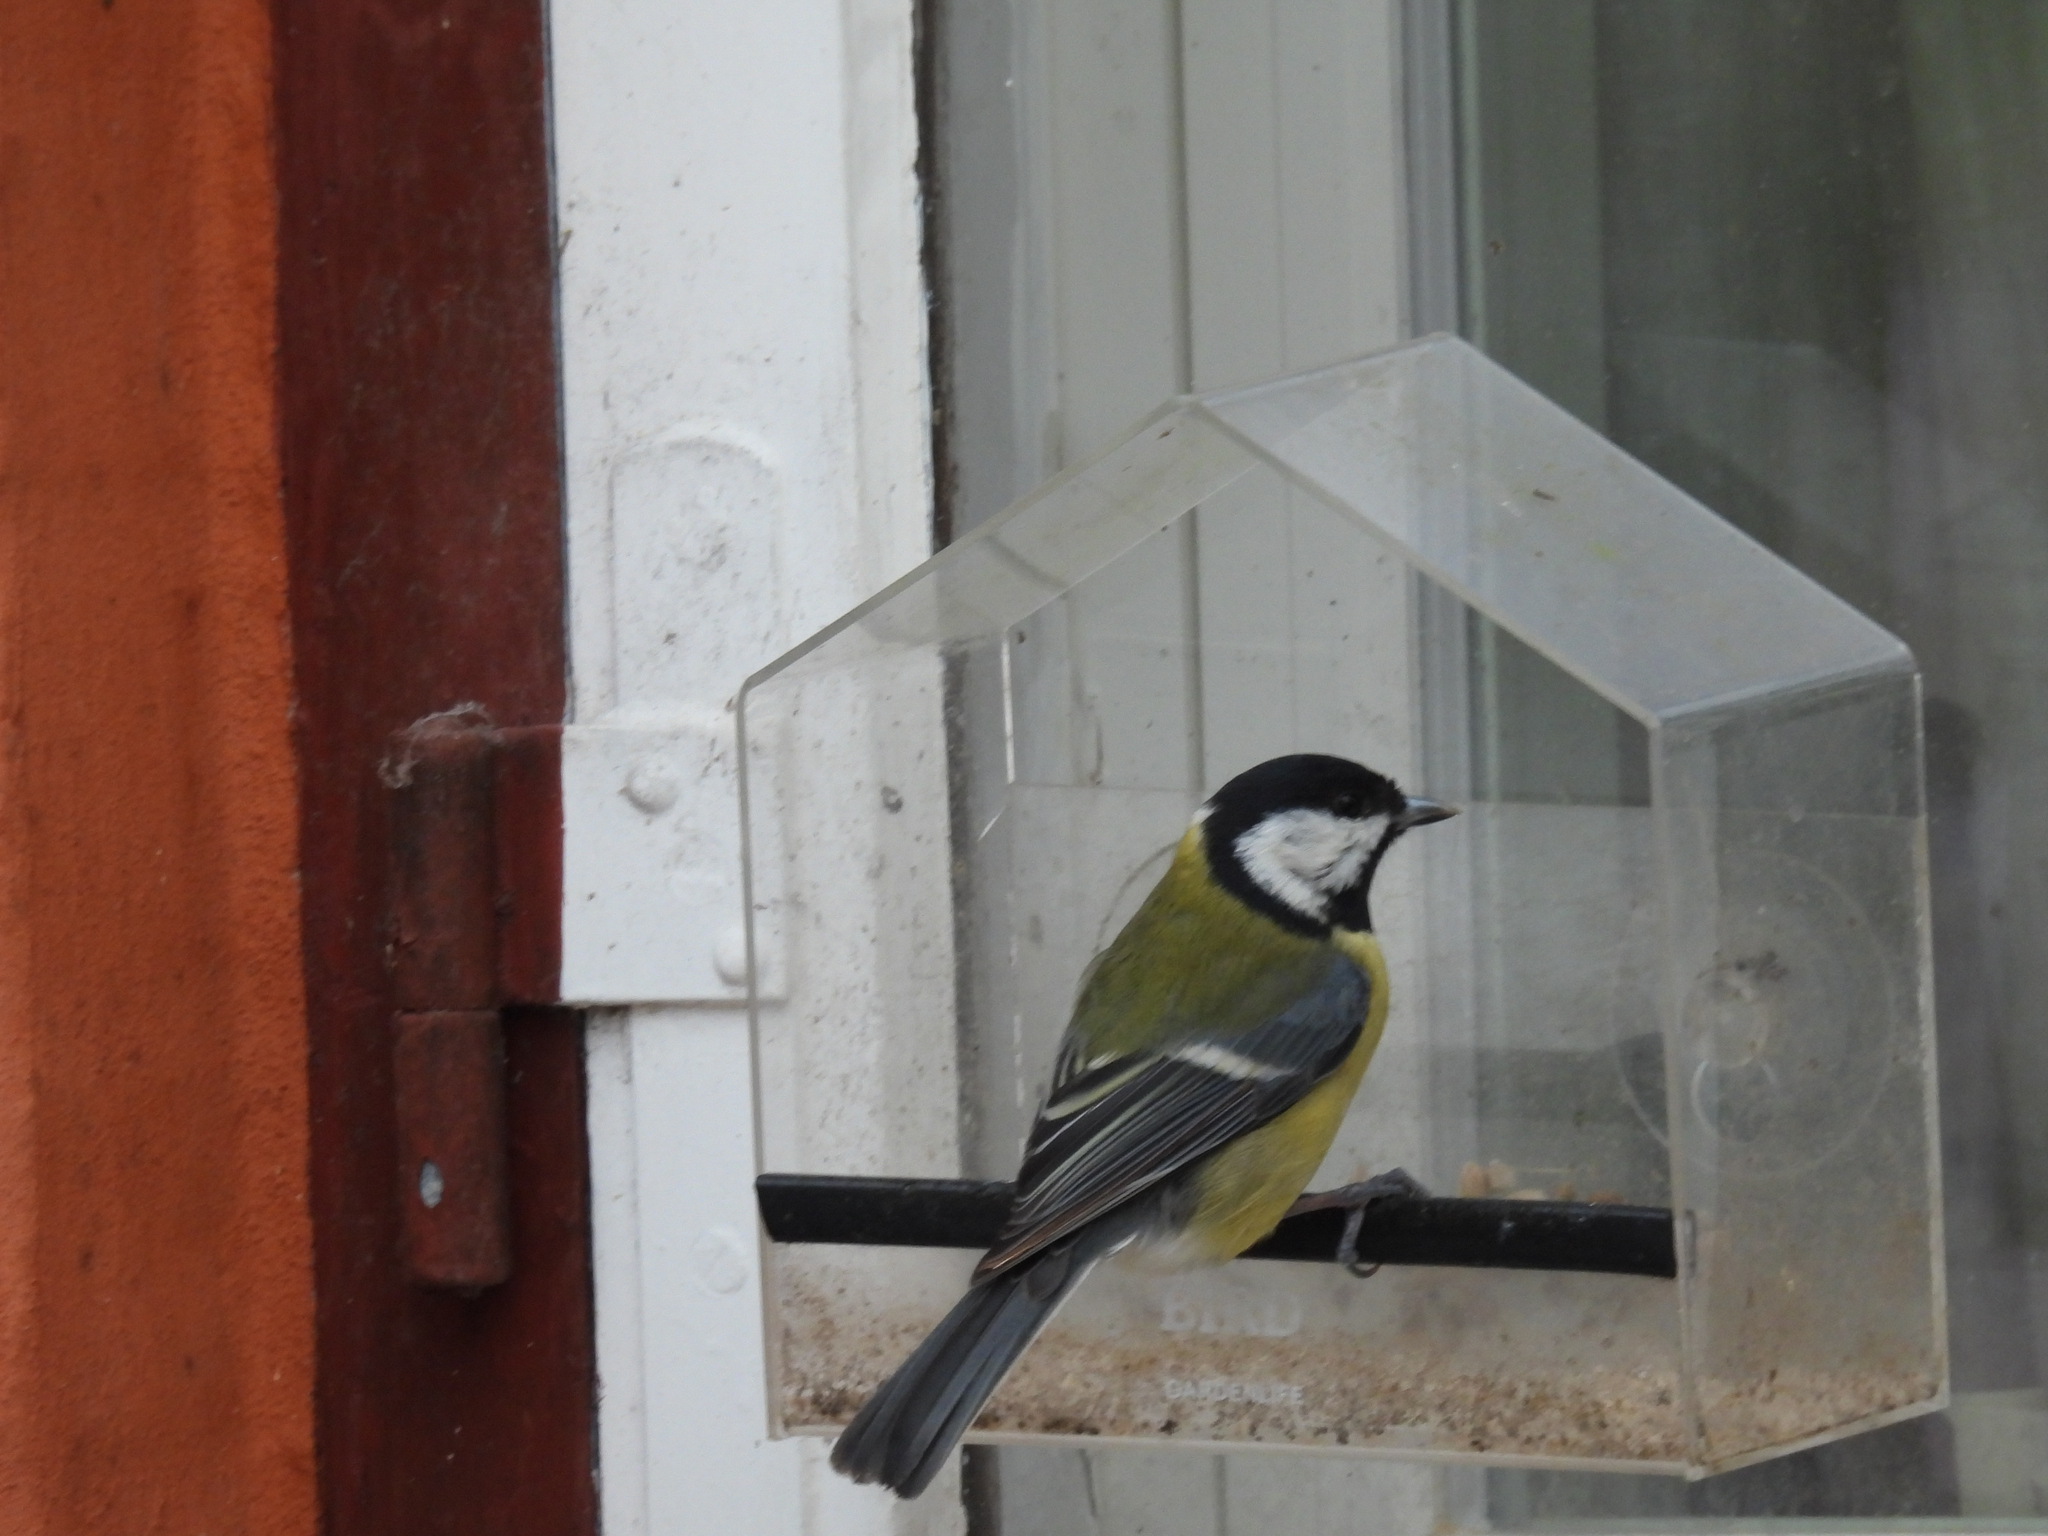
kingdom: Animalia
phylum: Chordata
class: Aves
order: Passeriformes
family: Paridae
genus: Parus
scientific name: Parus major
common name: Great tit
